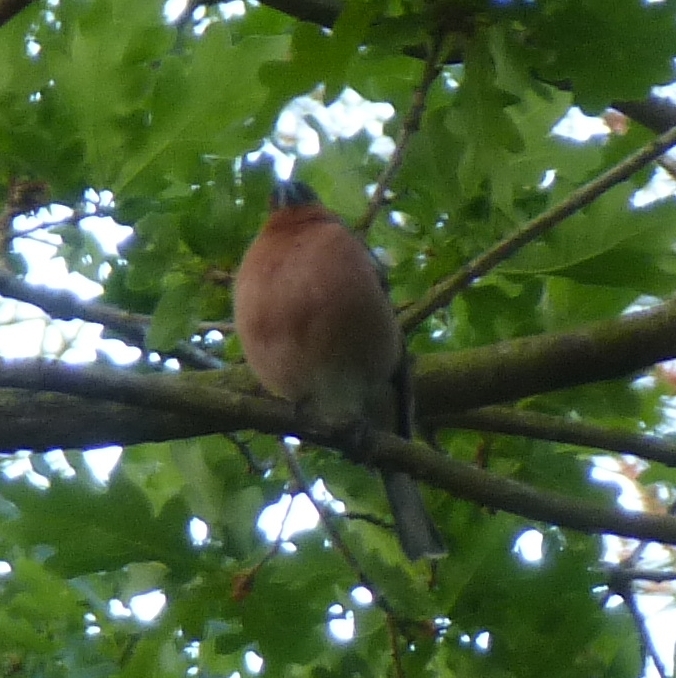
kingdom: Animalia
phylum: Chordata
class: Aves
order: Passeriformes
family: Fringillidae
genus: Fringilla
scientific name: Fringilla coelebs
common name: Common chaffinch
